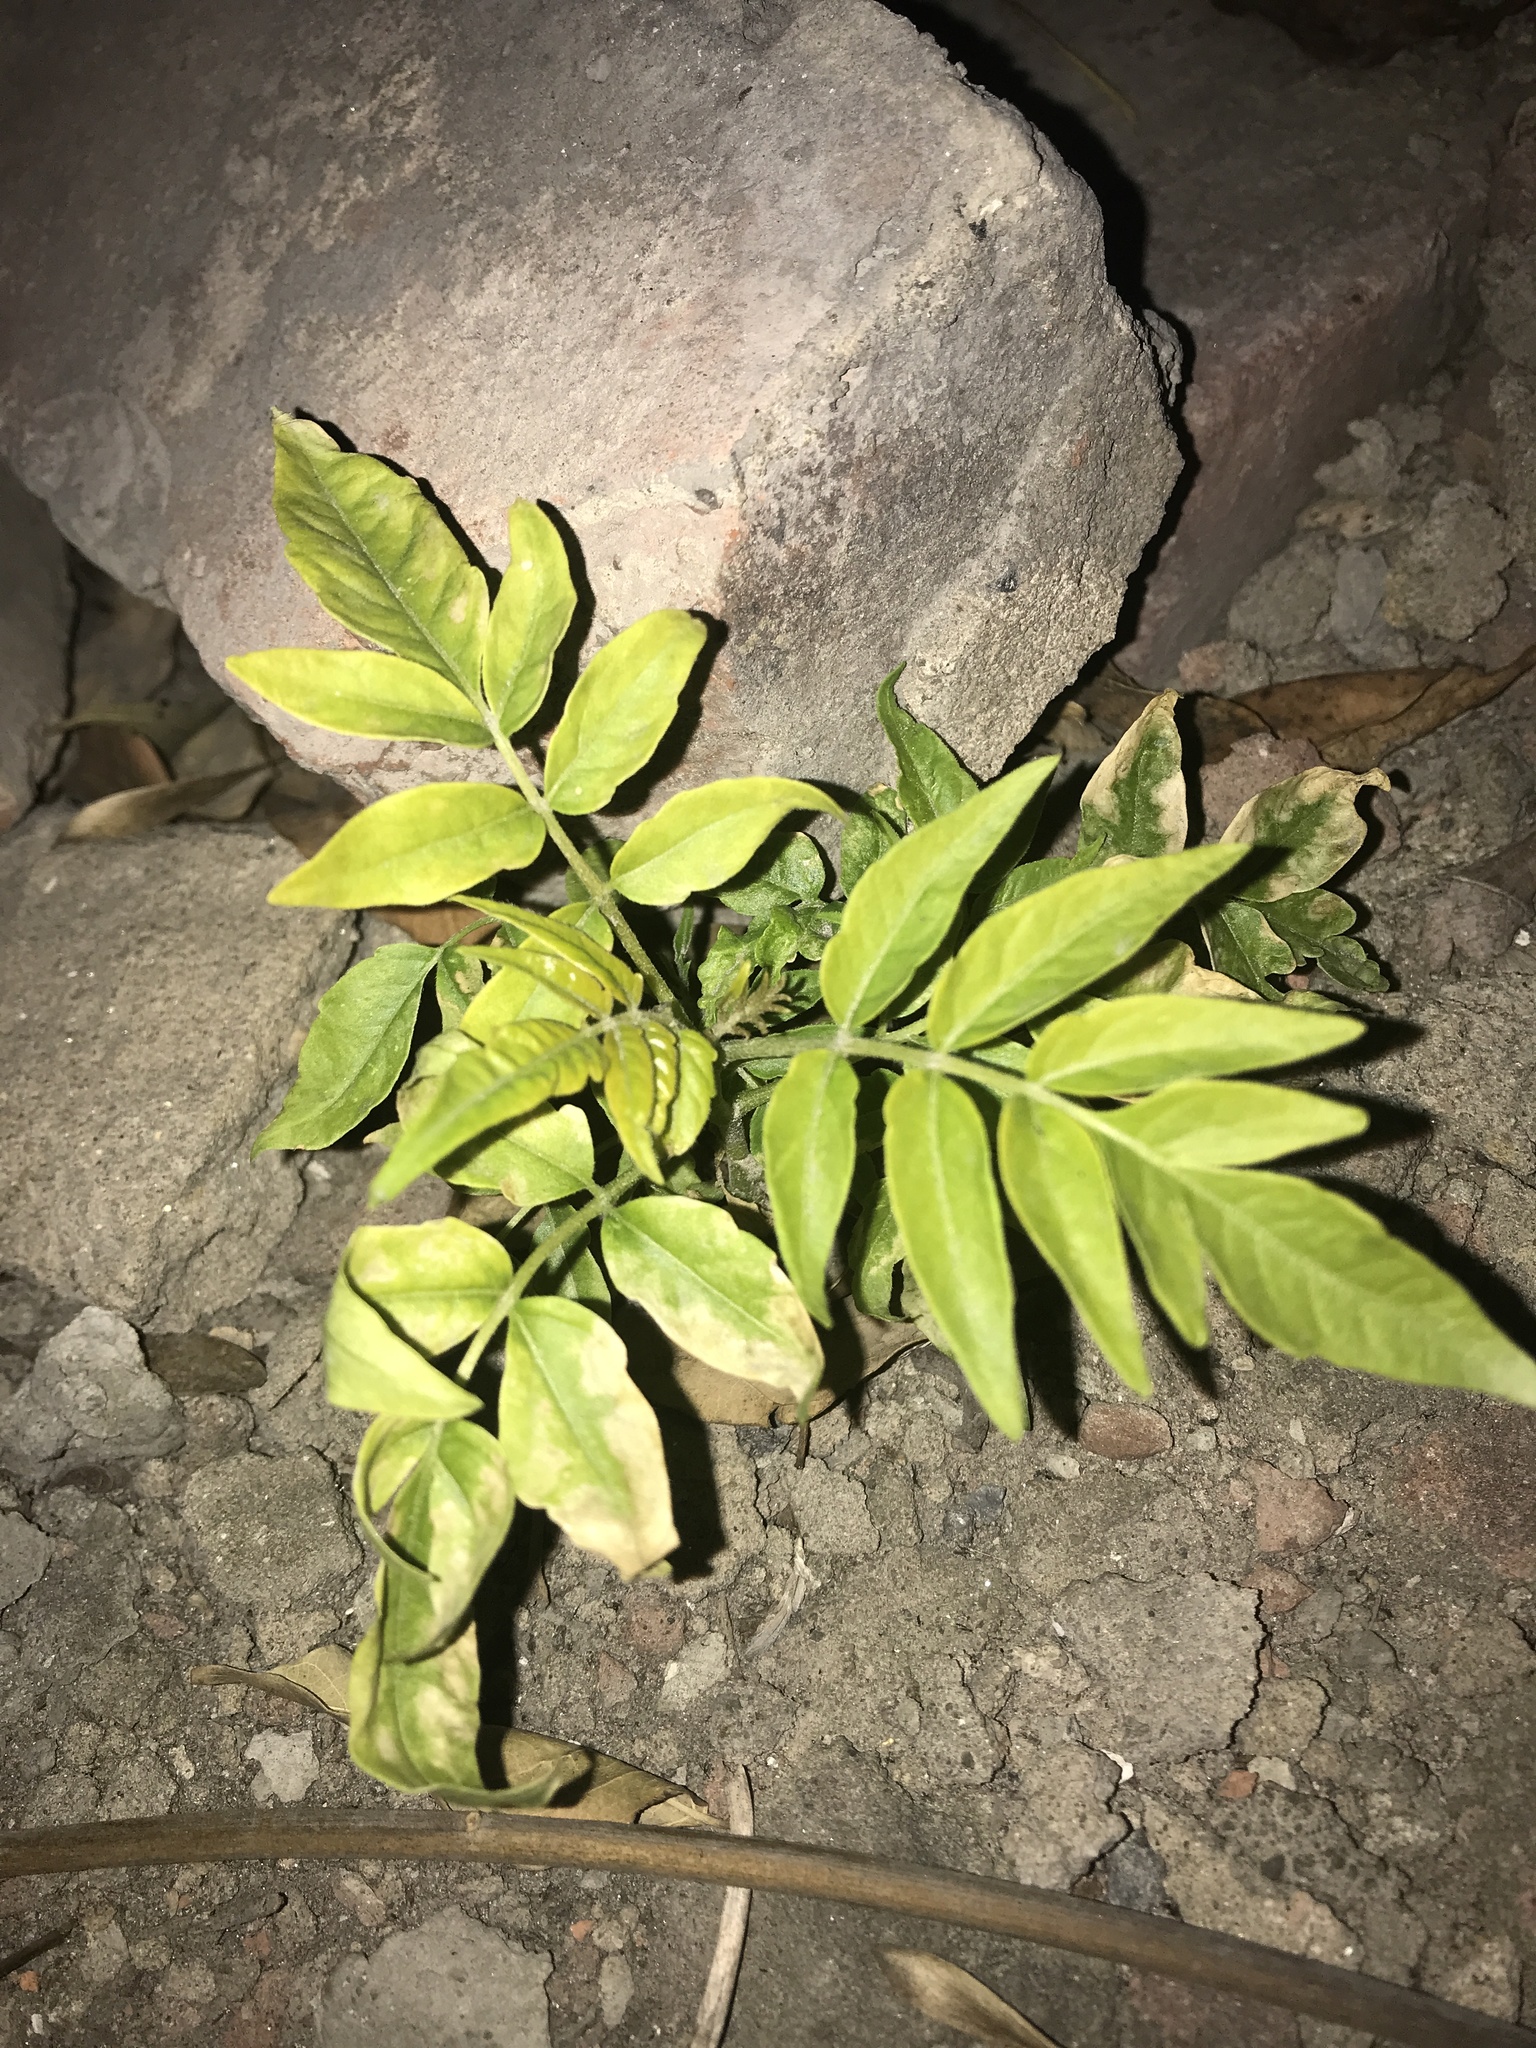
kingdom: Plantae
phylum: Tracheophyta
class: Magnoliopsida
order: Sapindales
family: Simaroubaceae
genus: Ailanthus
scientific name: Ailanthus altissima
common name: Tree-of-heaven
